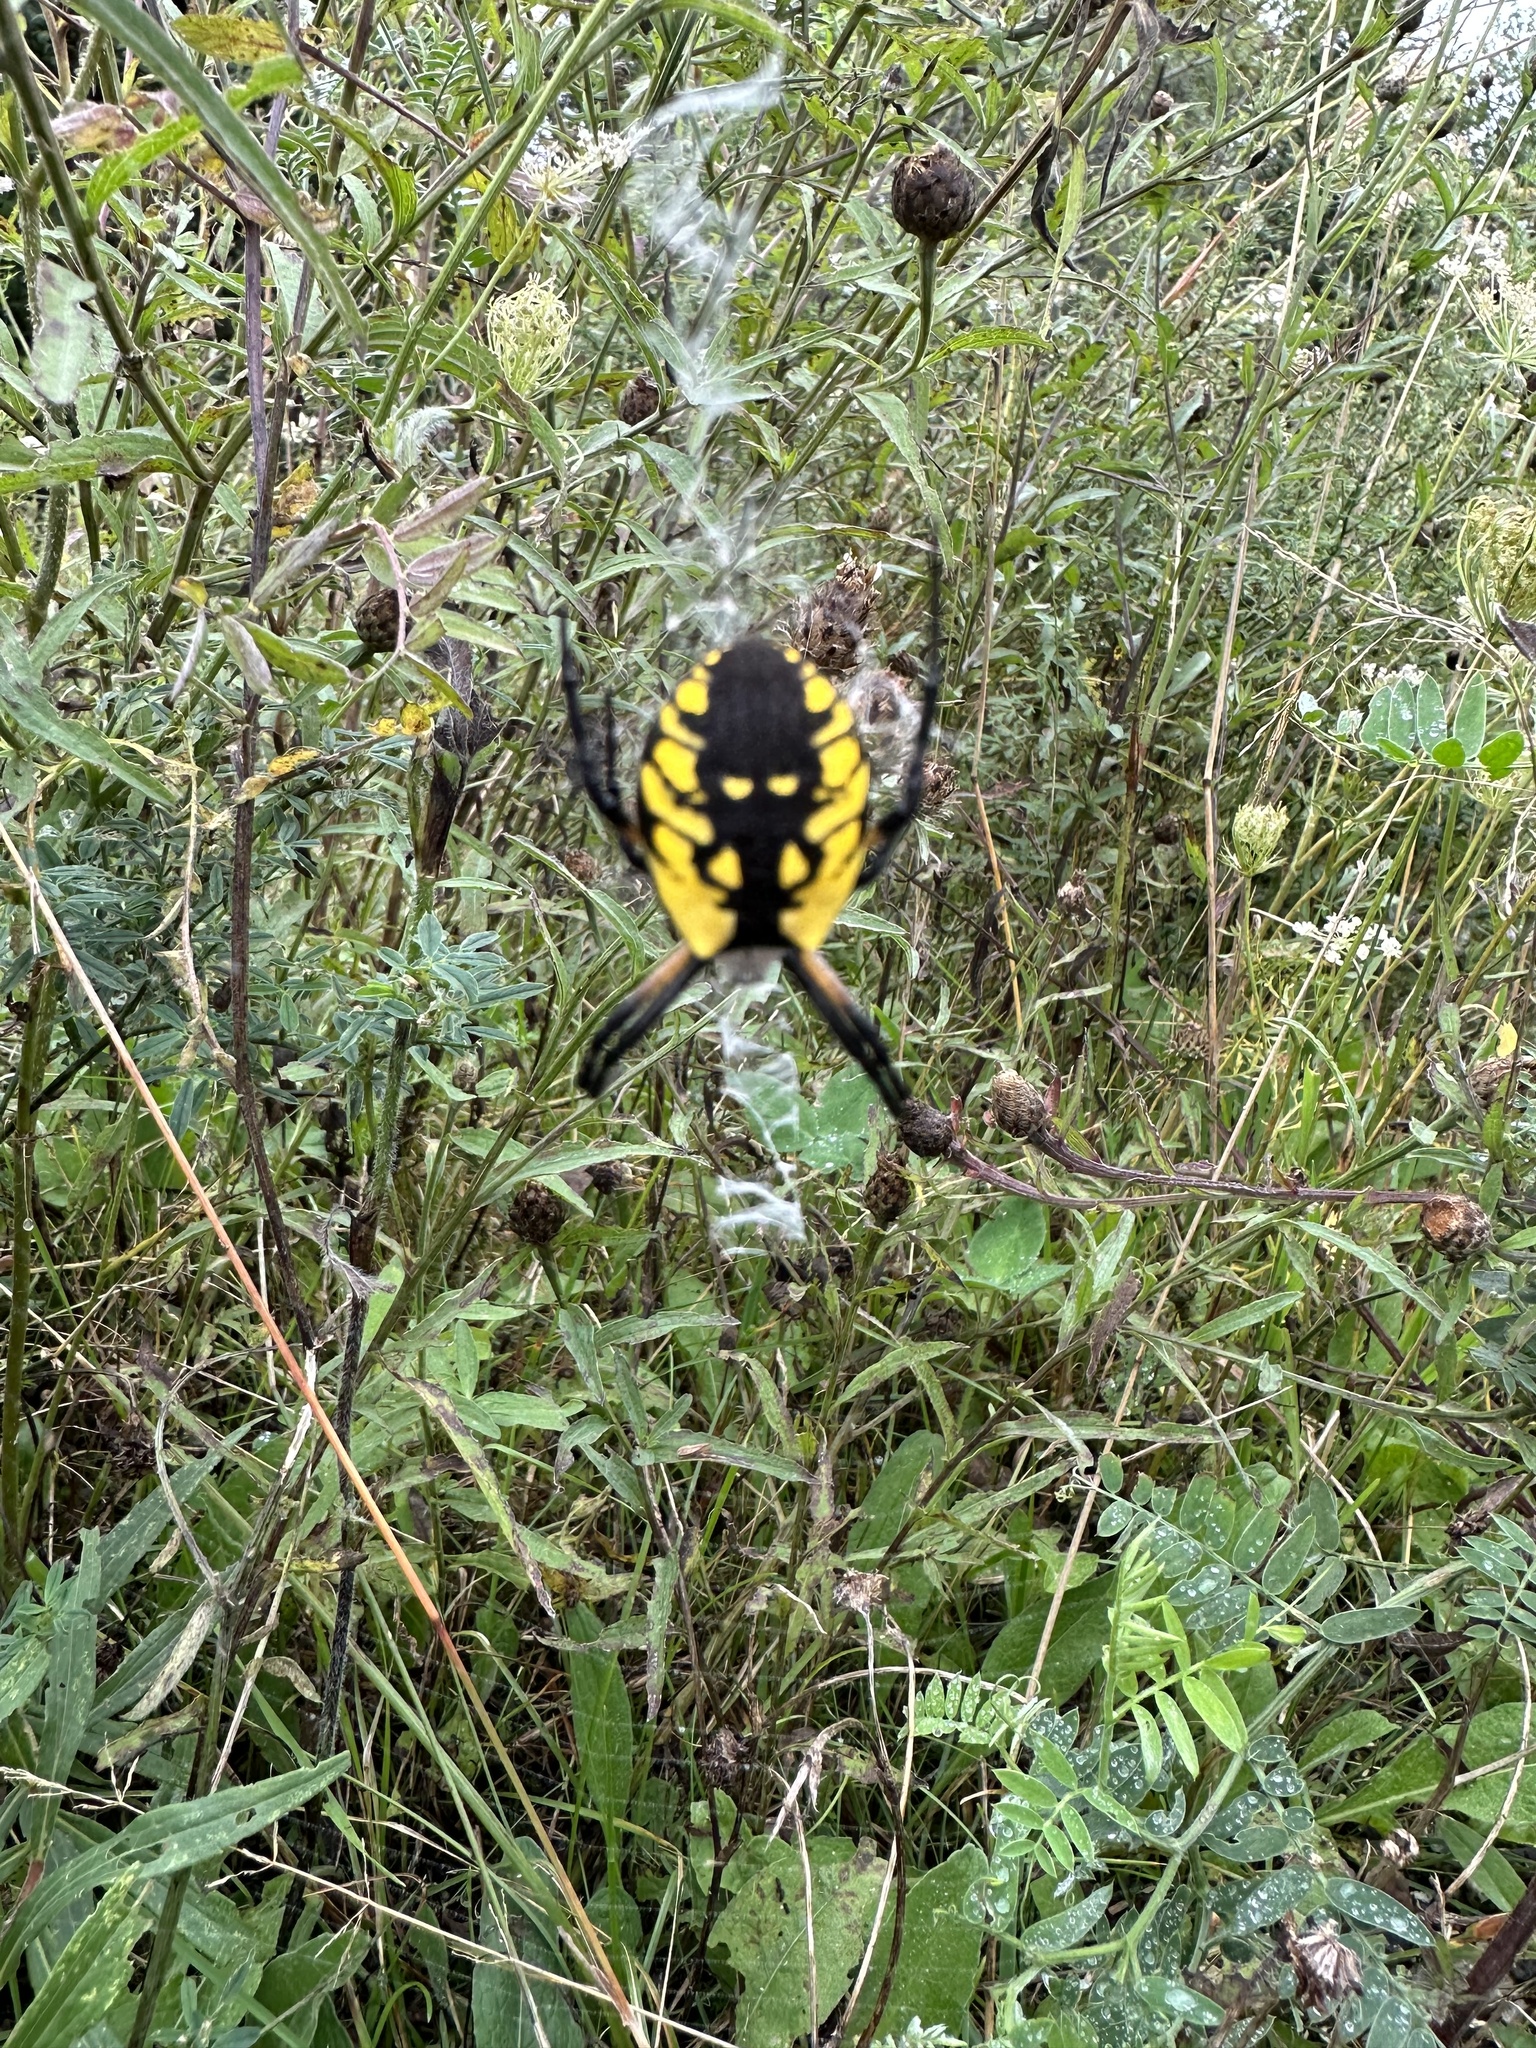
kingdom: Animalia
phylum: Arthropoda
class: Arachnida
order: Araneae
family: Araneidae
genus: Argiope
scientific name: Argiope aurantia
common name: Orb weavers
